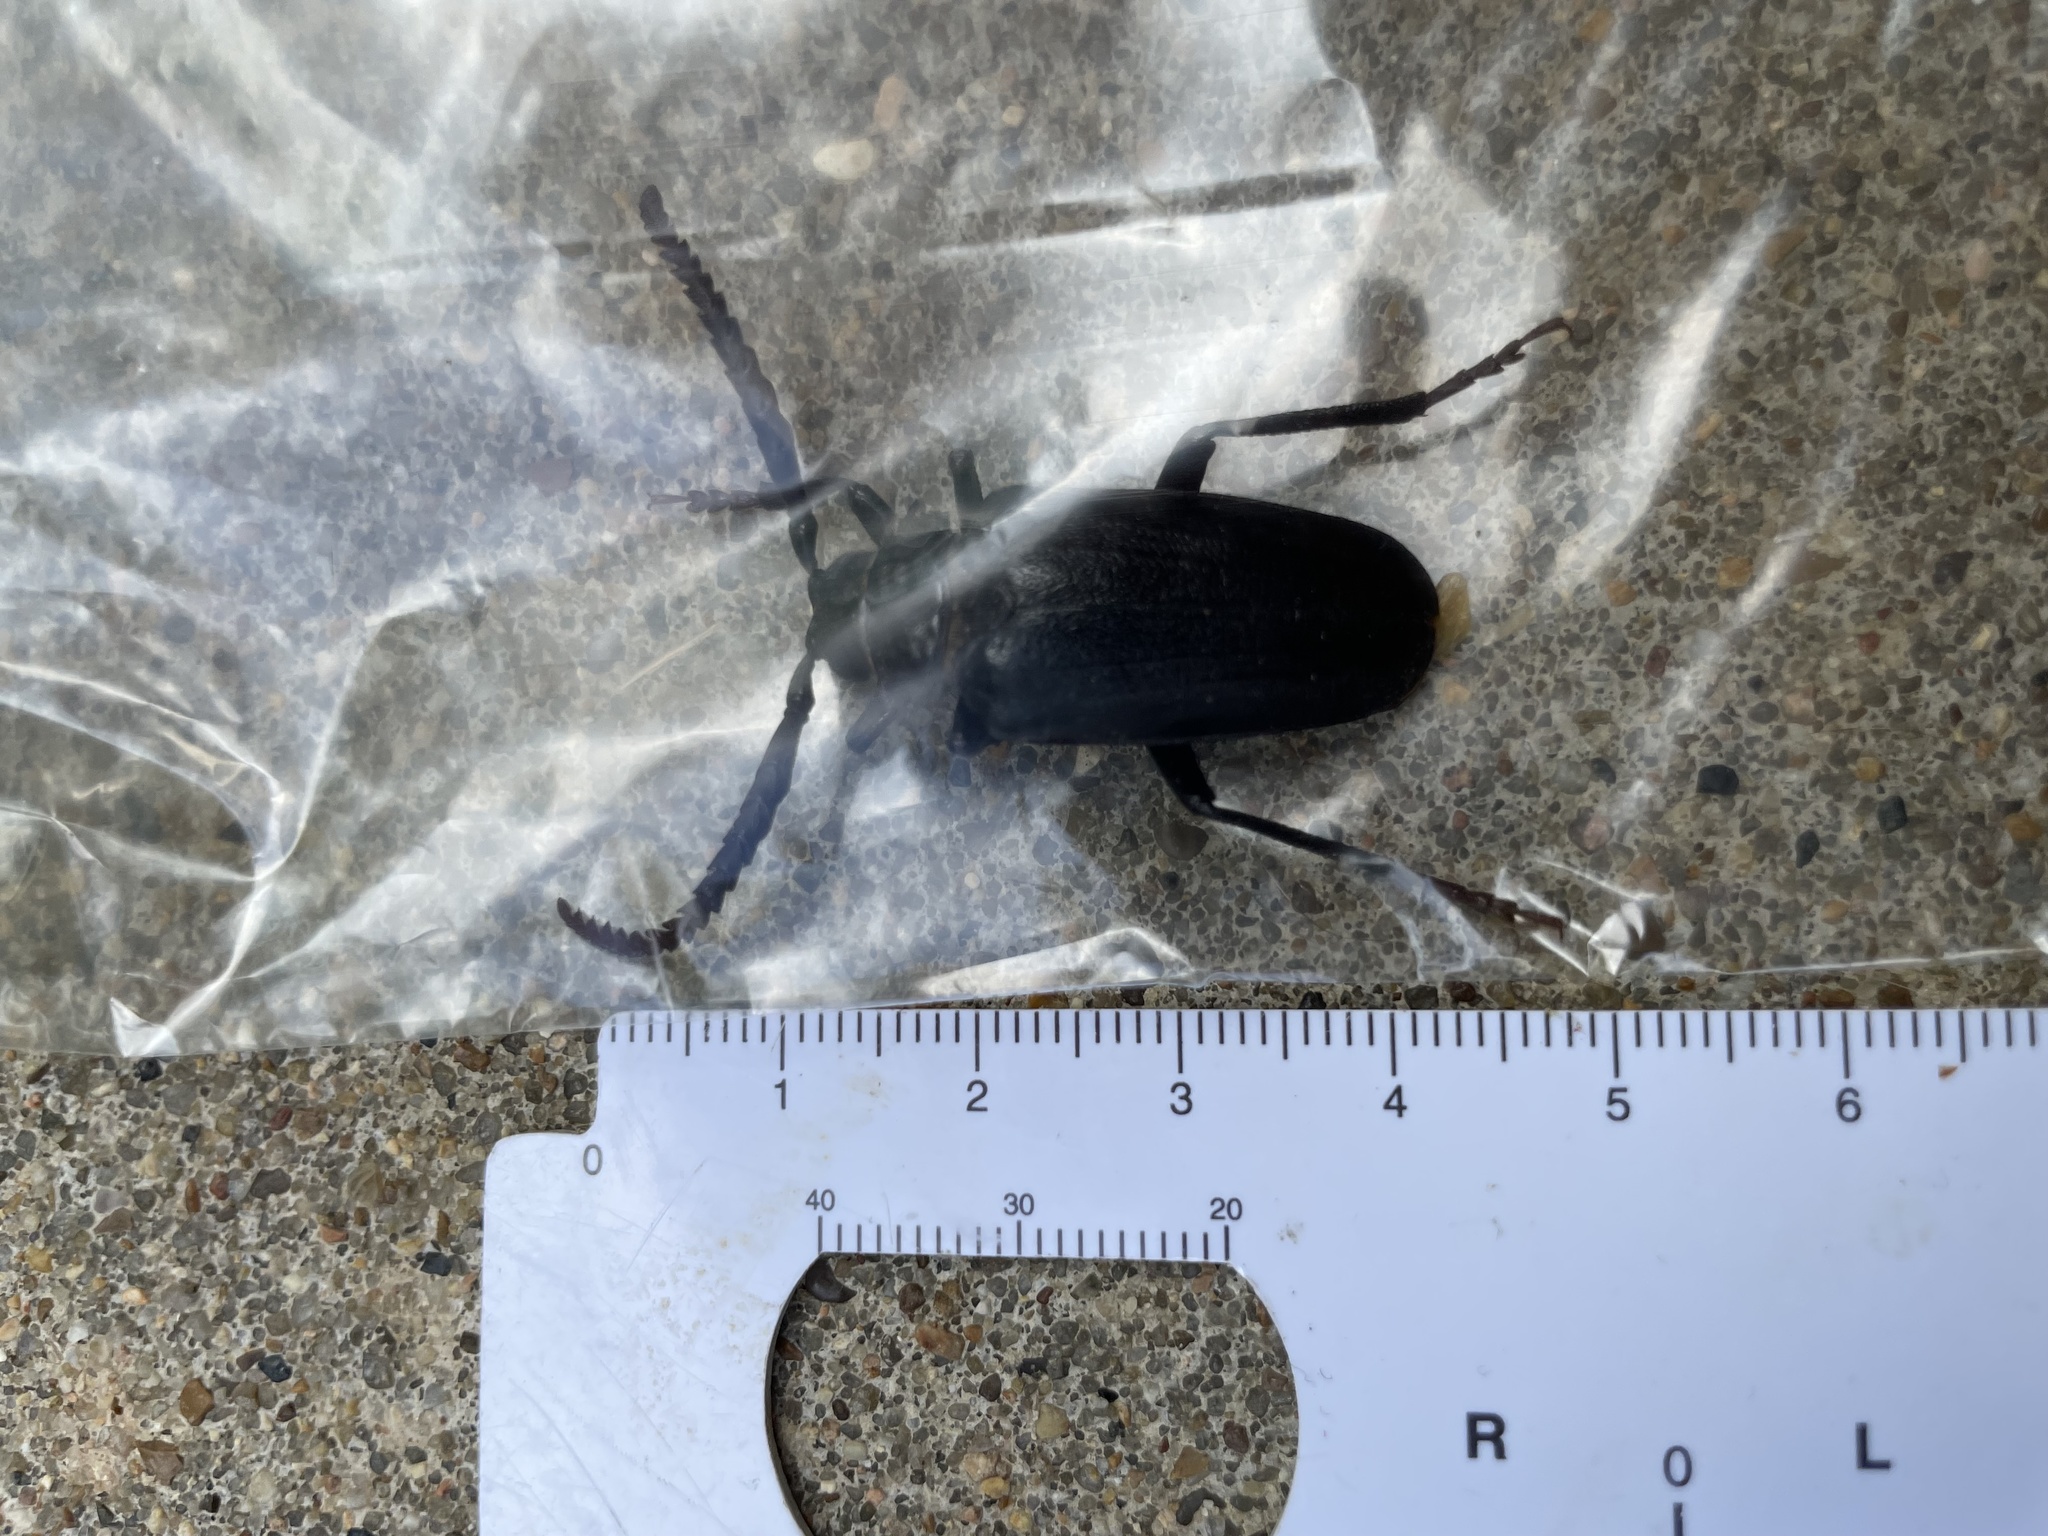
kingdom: Animalia
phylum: Arthropoda
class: Insecta
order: Coleoptera
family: Cerambycidae
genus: Prionus
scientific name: Prionus imbricornis
